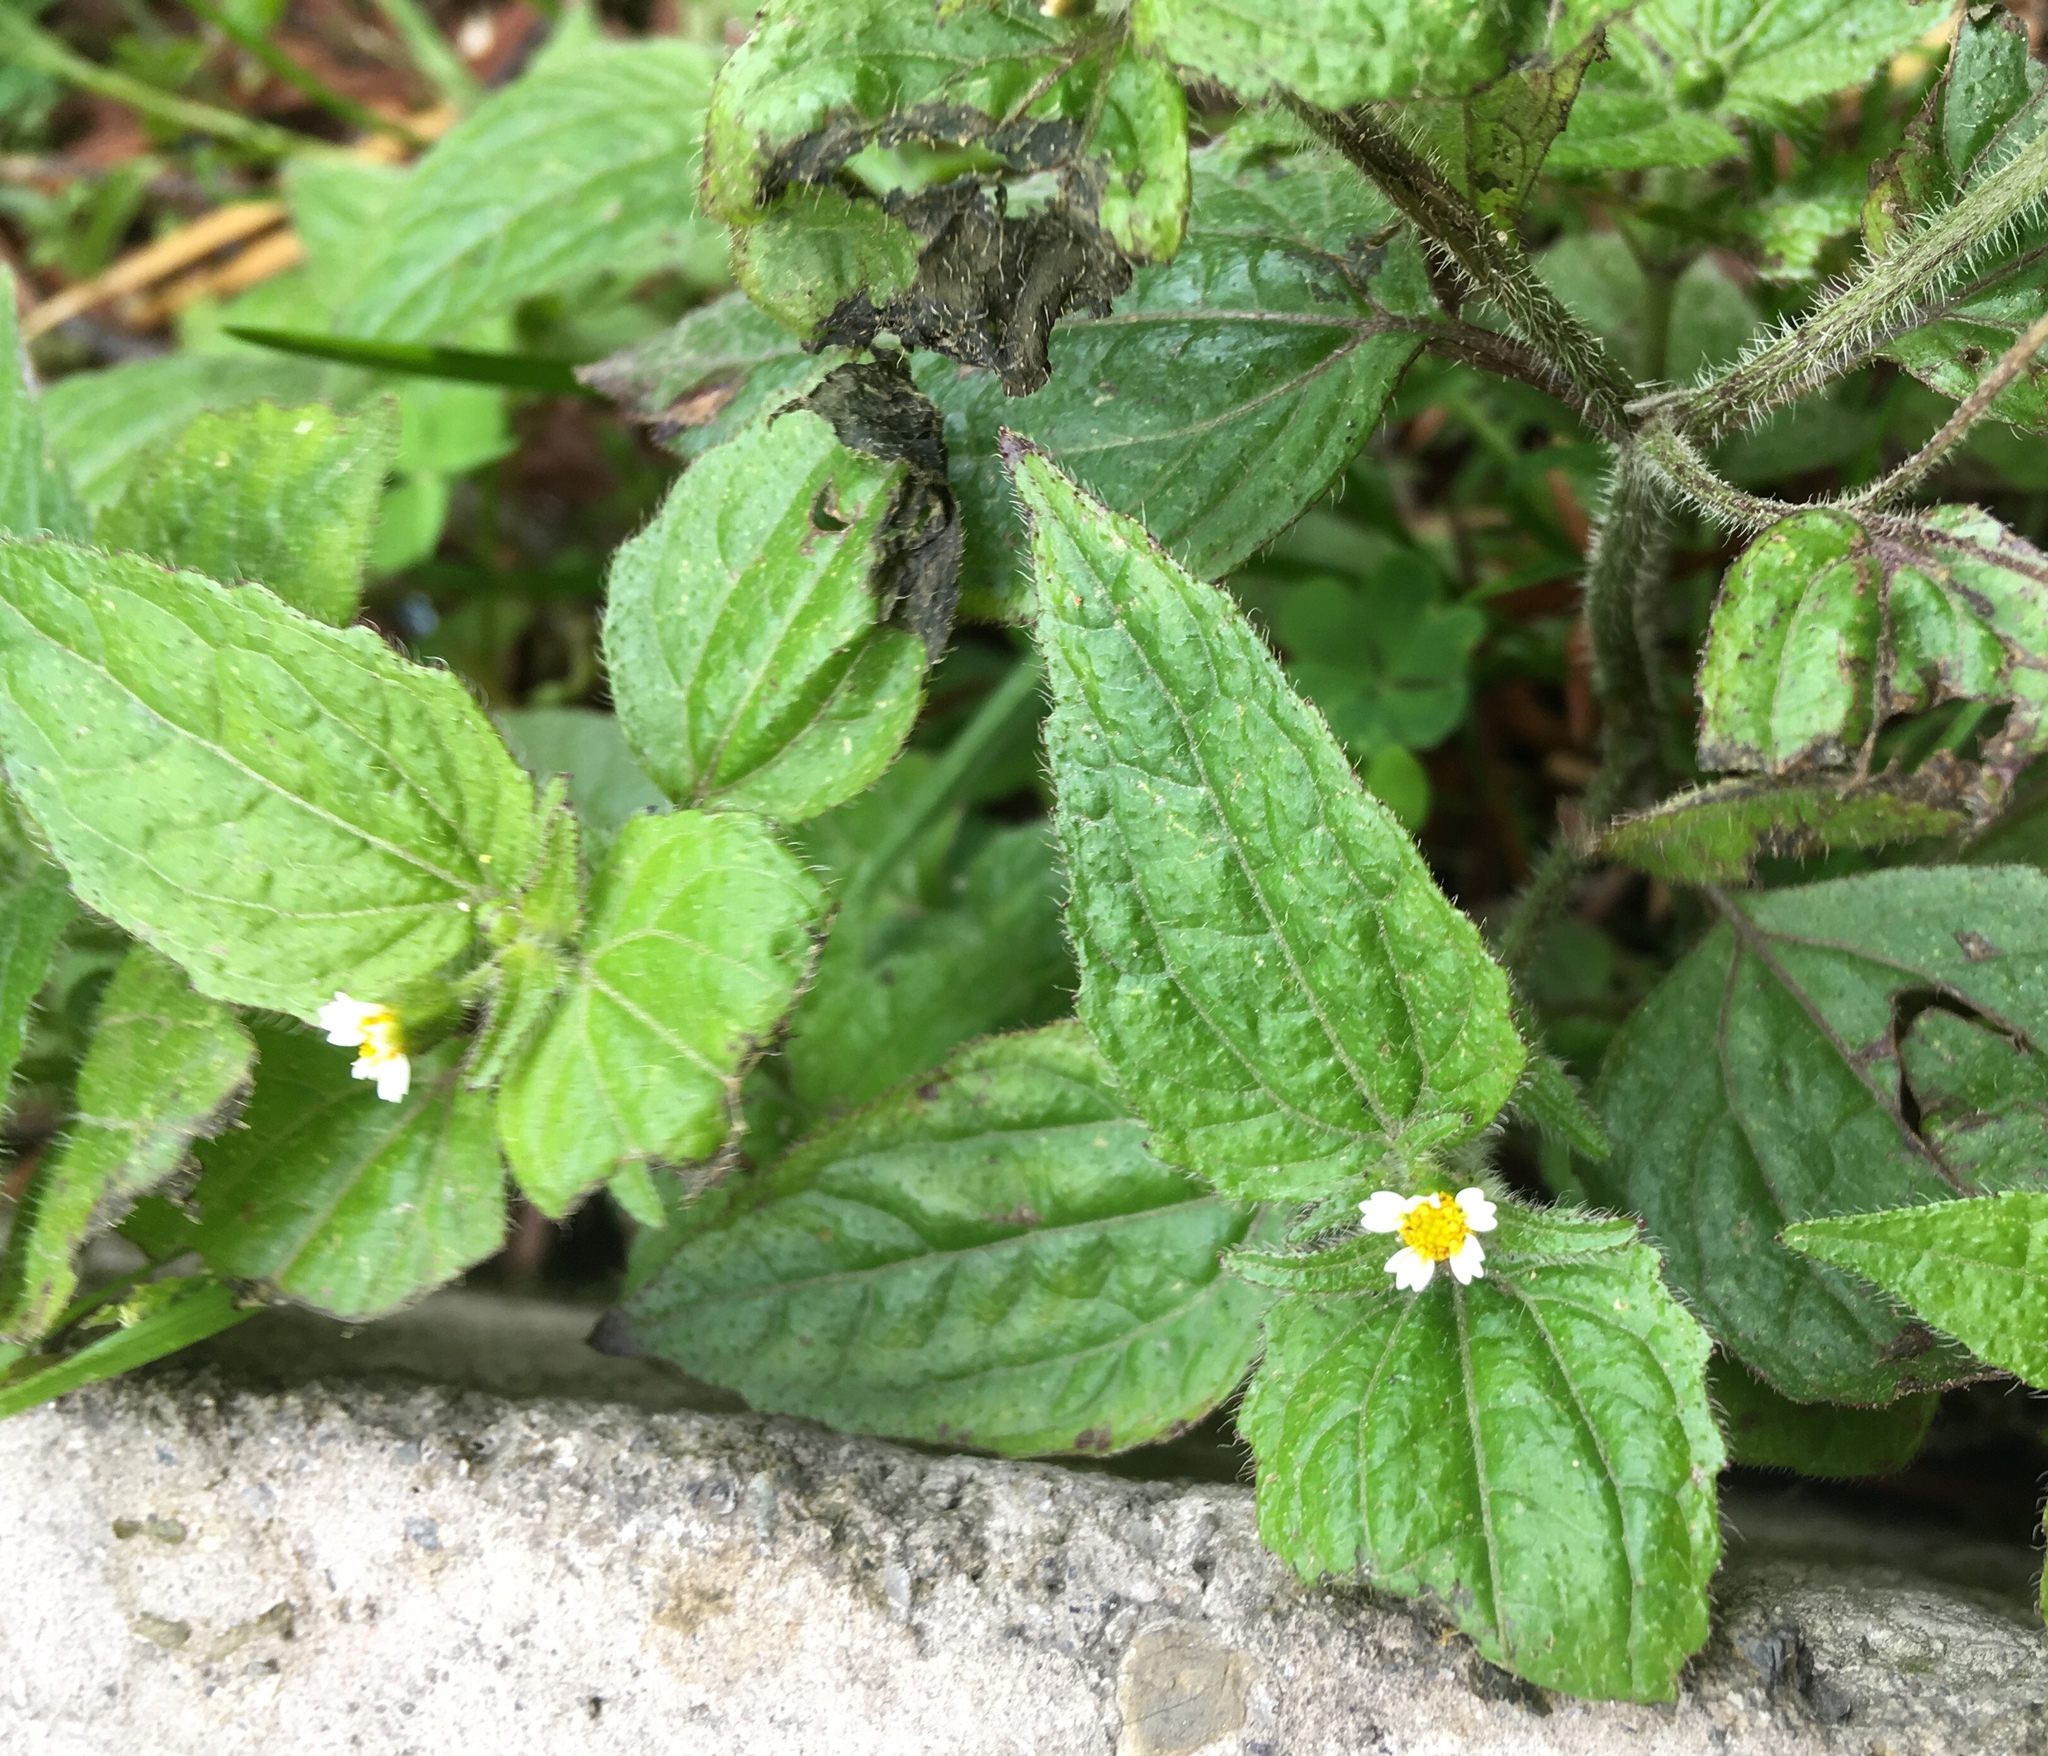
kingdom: Plantae
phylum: Tracheophyta
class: Magnoliopsida
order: Asterales
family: Asteraceae
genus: Galinsoga
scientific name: Galinsoga quadriradiata
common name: Shaggy soldier
